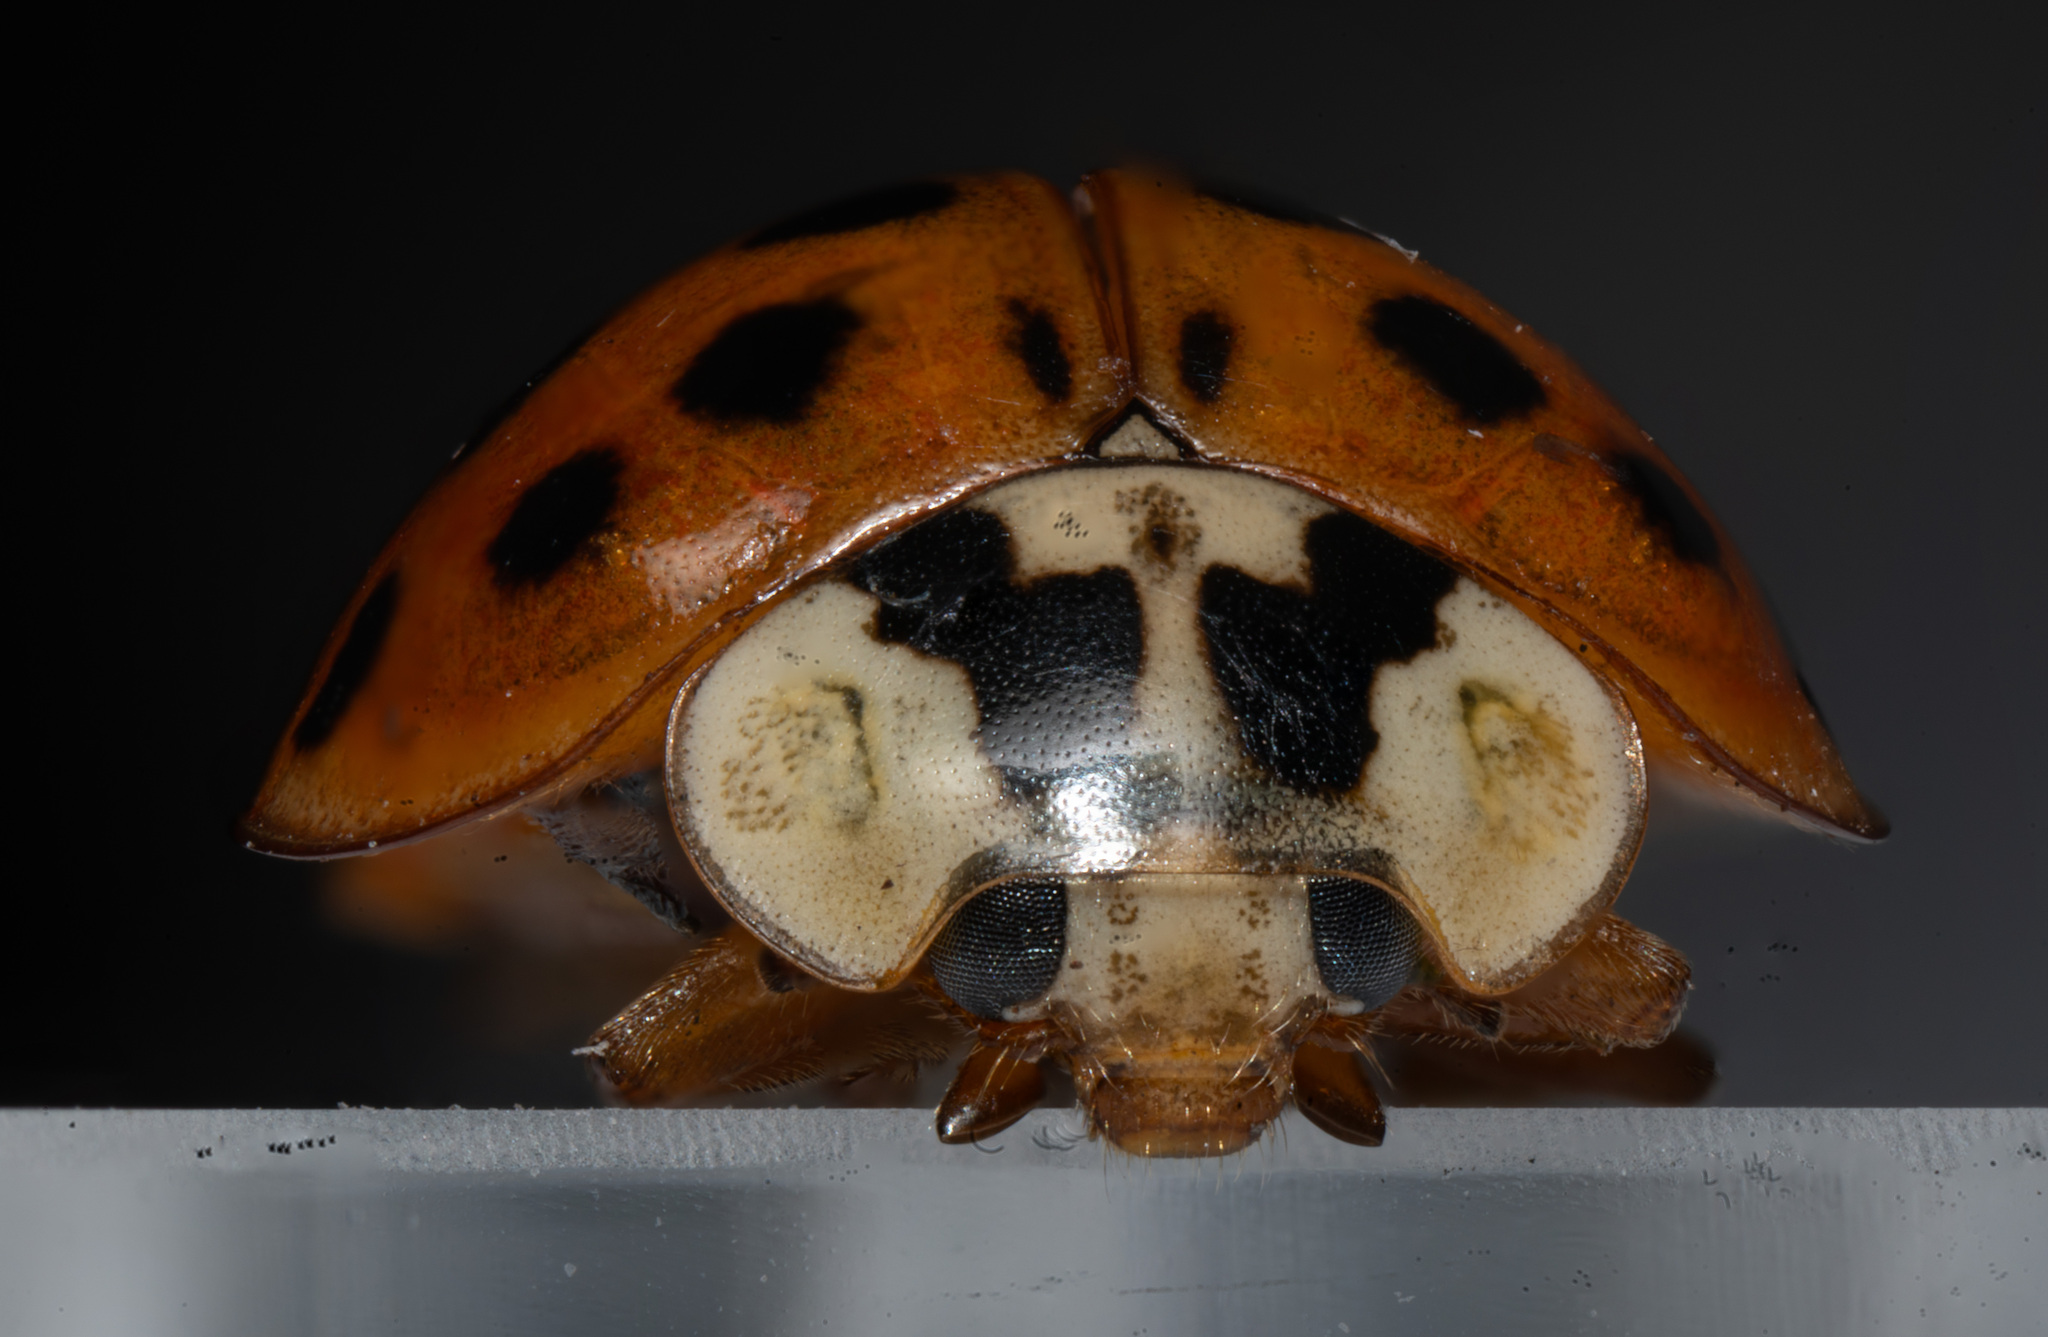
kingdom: Animalia
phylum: Arthropoda
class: Insecta
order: Coleoptera
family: Coccinellidae
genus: Harmonia
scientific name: Harmonia axyridis
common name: Harlequin ladybird
